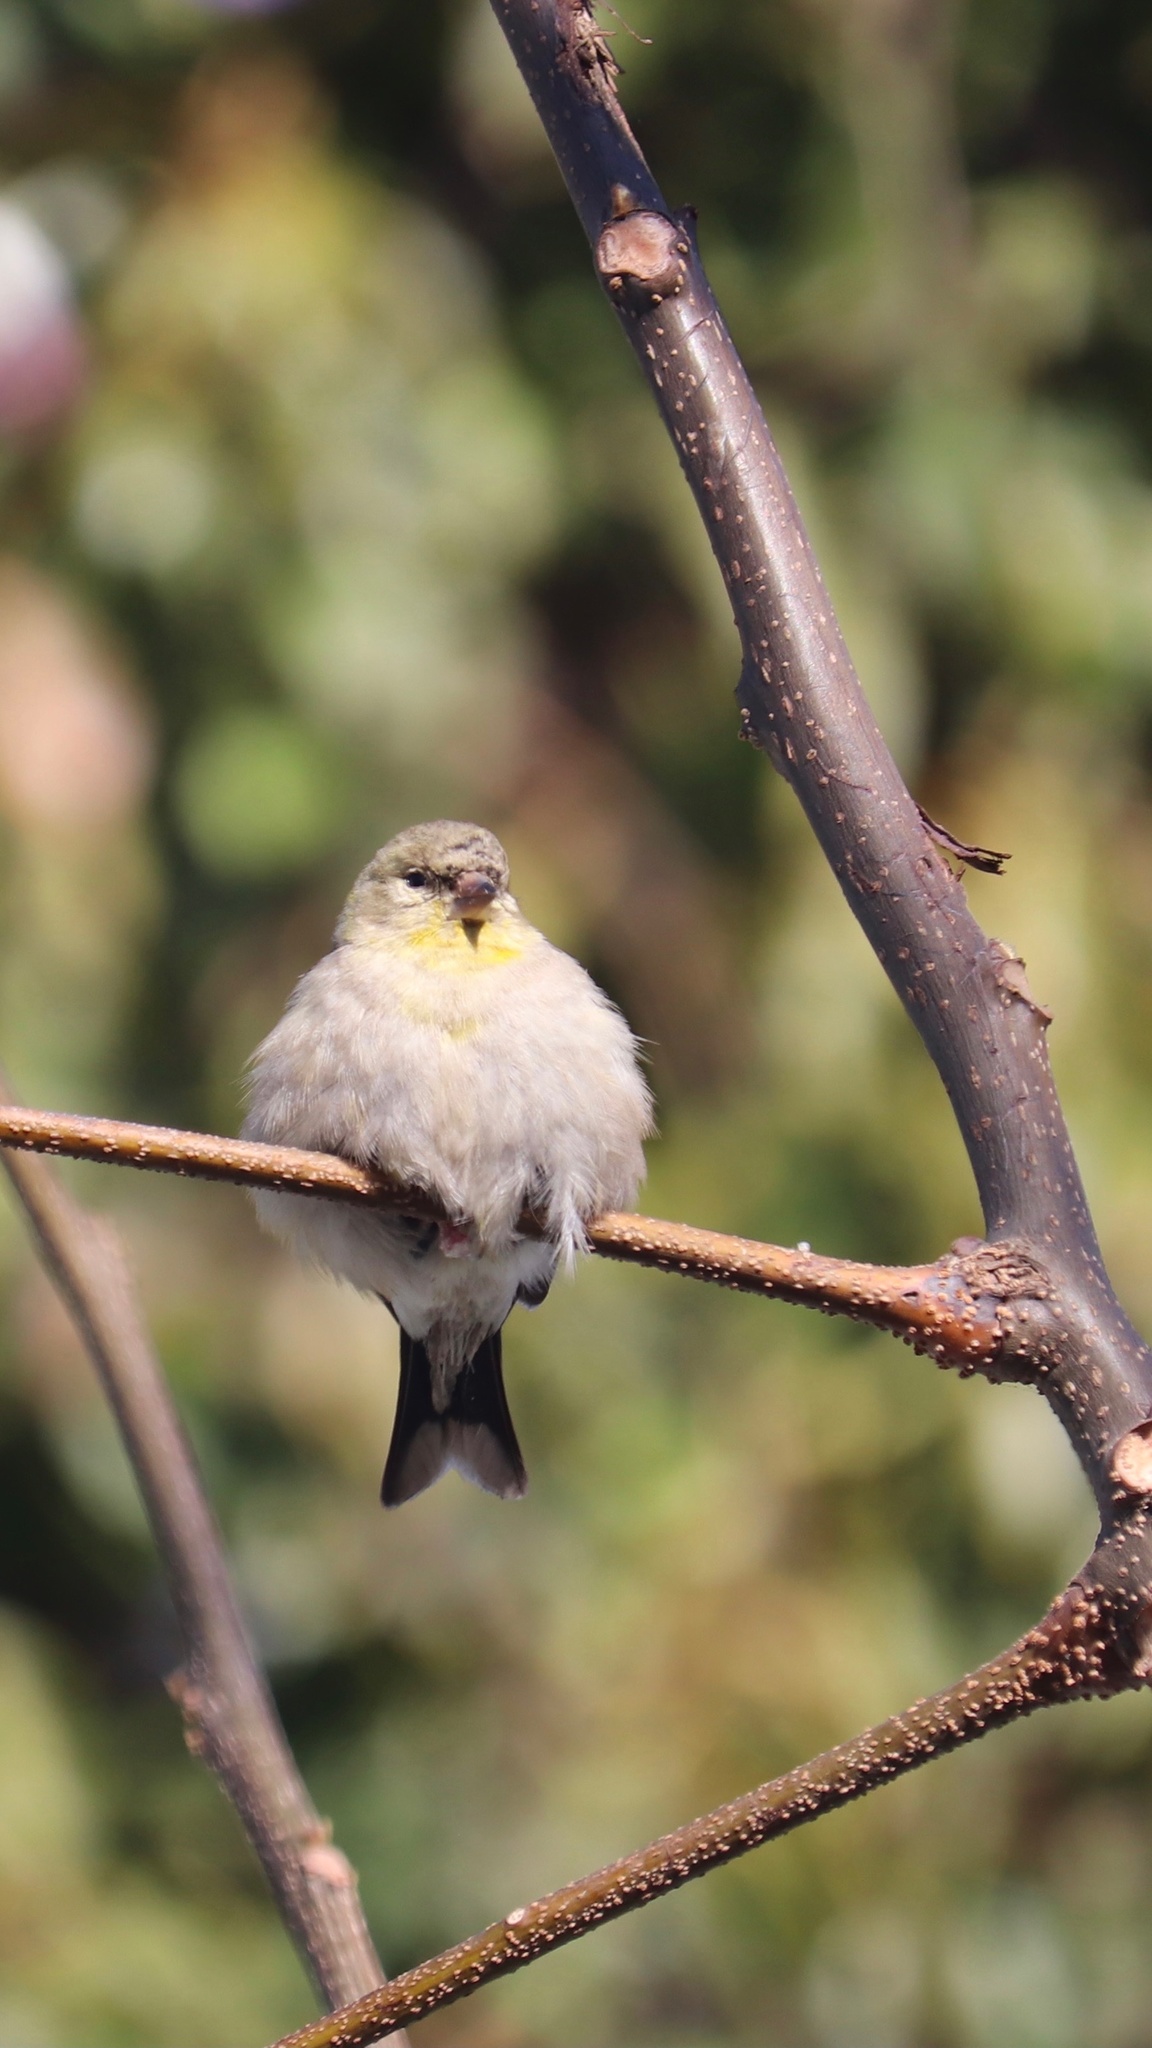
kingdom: Animalia
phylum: Chordata
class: Aves
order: Passeriformes
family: Fringillidae
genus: Spinus
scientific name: Spinus tristis
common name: American goldfinch
